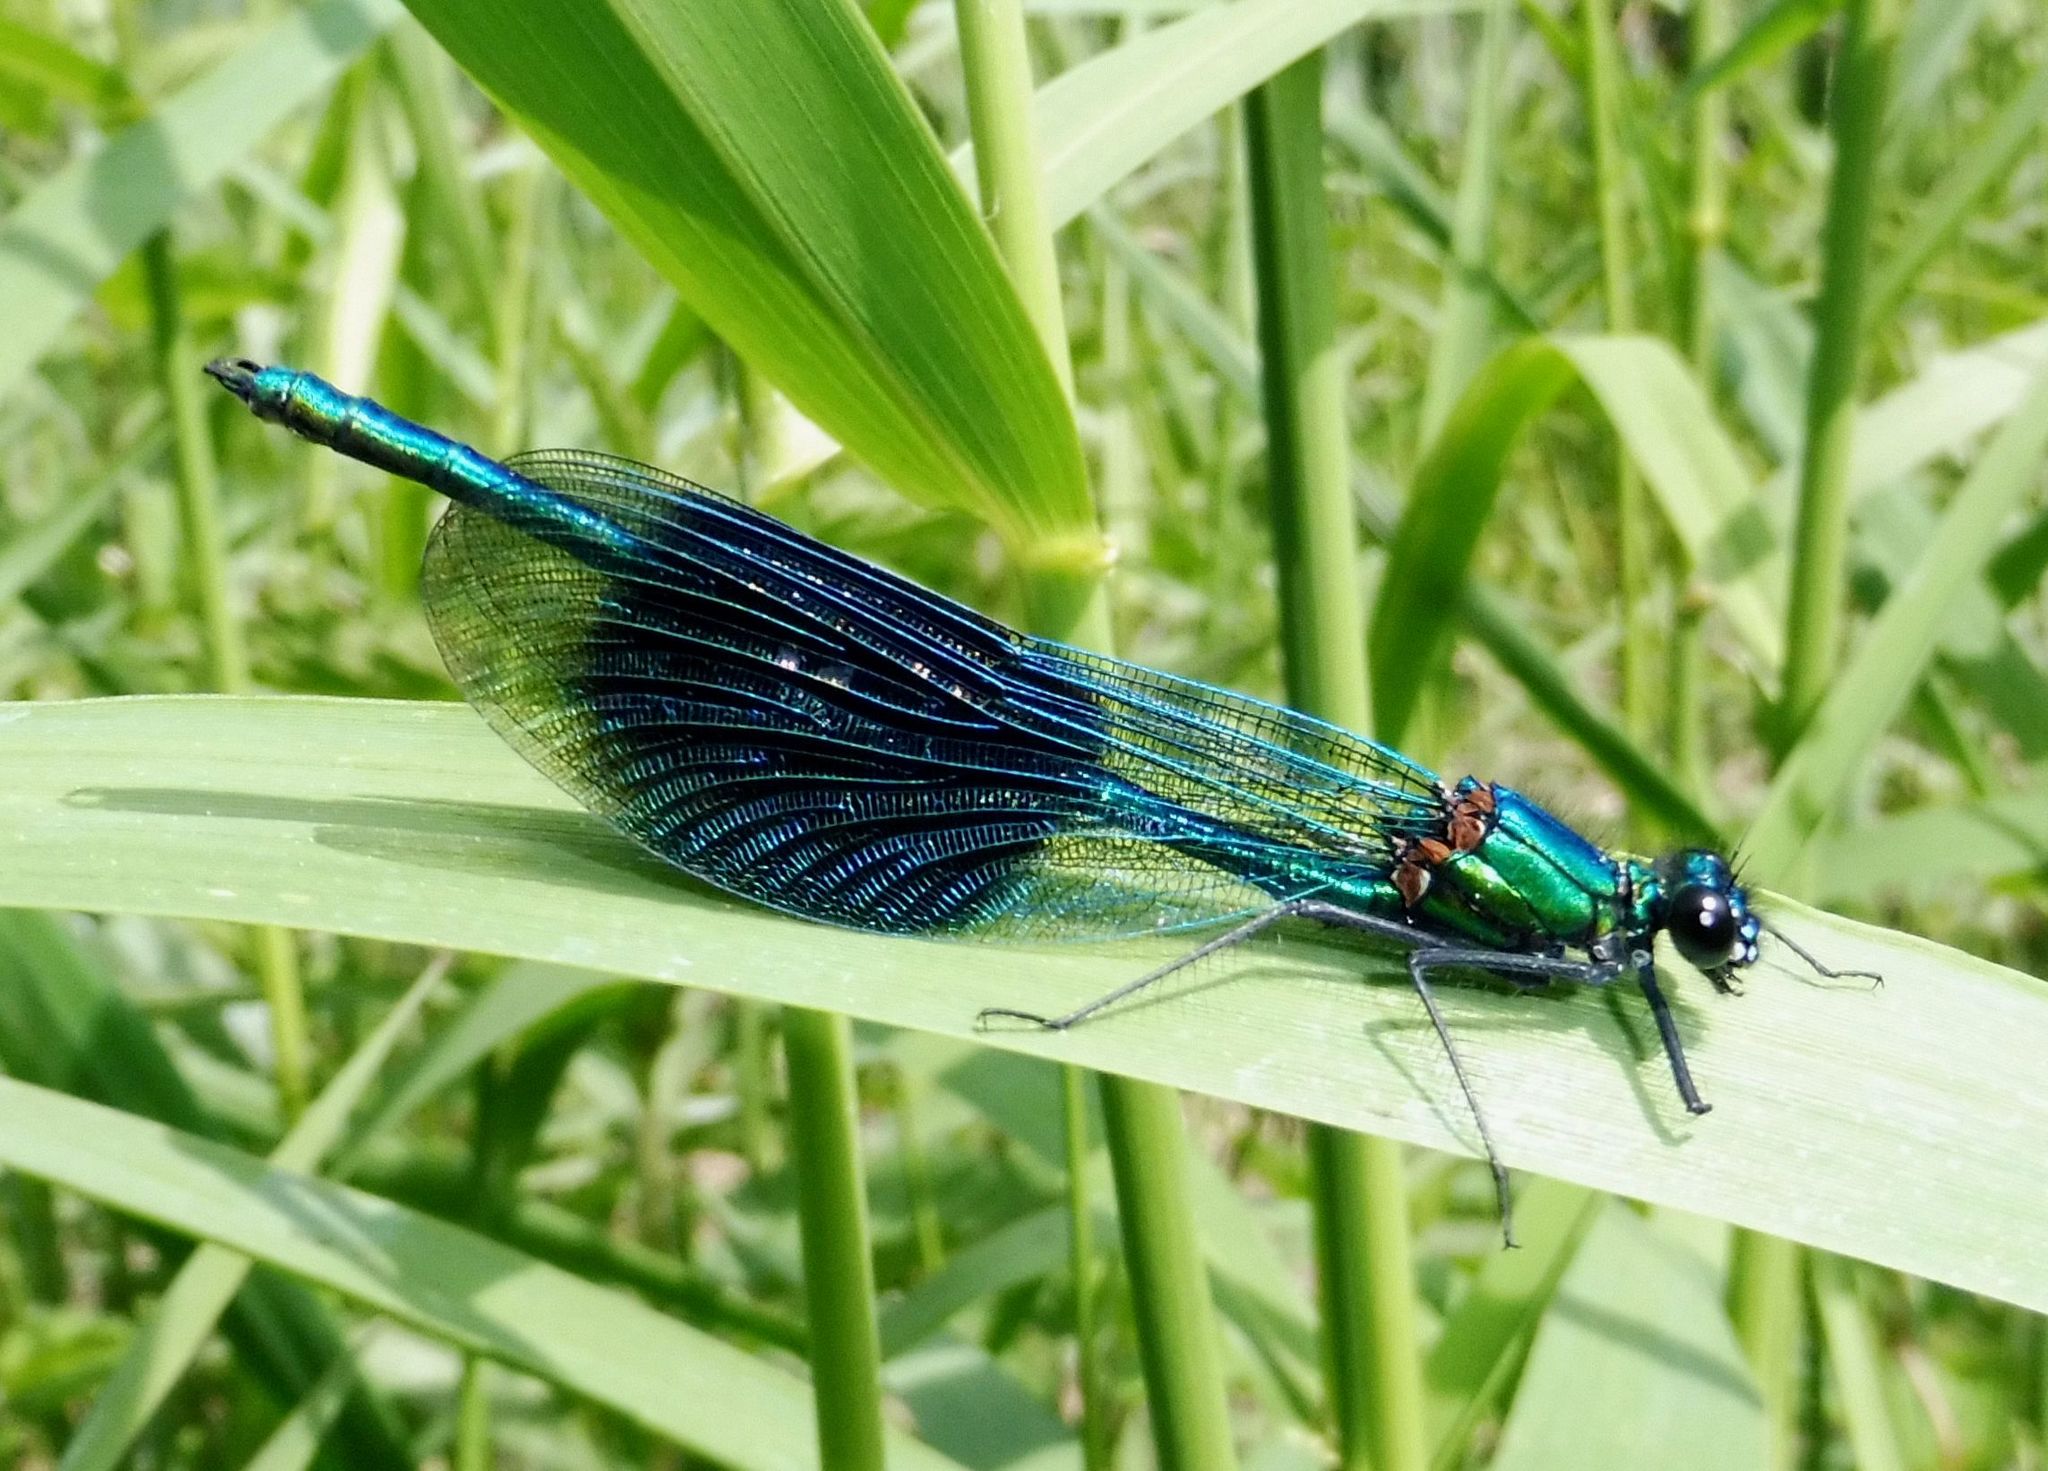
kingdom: Animalia
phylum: Arthropoda
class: Insecta
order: Odonata
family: Calopterygidae
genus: Calopteryx
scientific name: Calopteryx splendens
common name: Banded demoiselle
